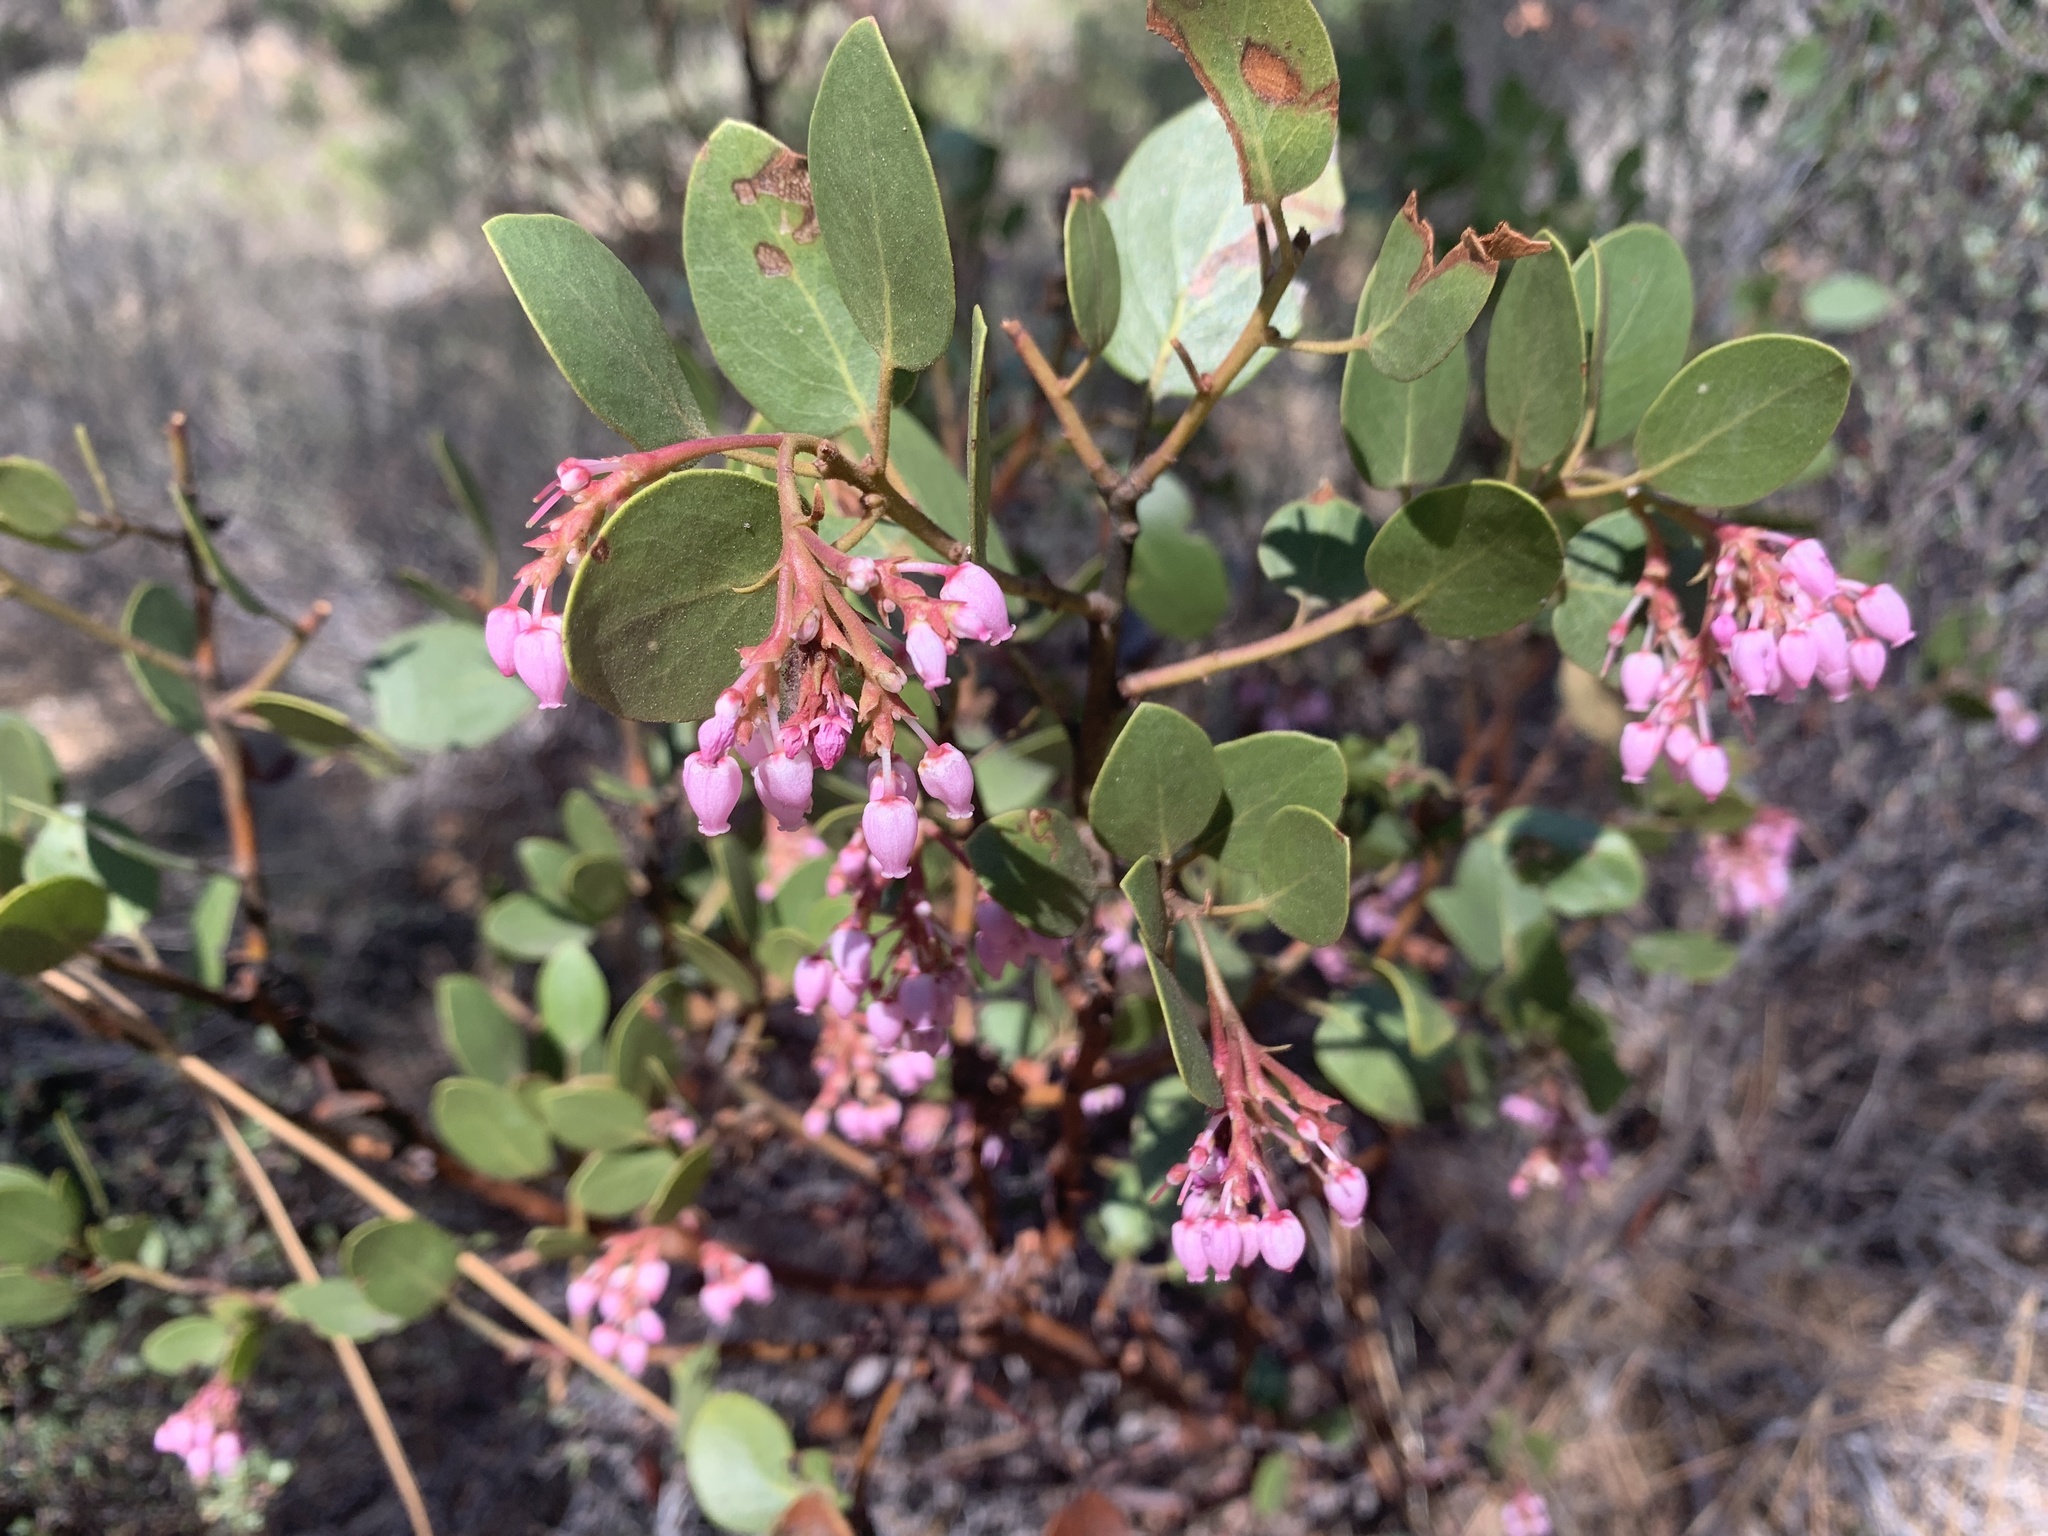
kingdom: Plantae
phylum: Tracheophyta
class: Magnoliopsida
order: Ericales
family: Ericaceae
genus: Arctostaphylos
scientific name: Arctostaphylos patula
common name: Green-leaf manzanita
